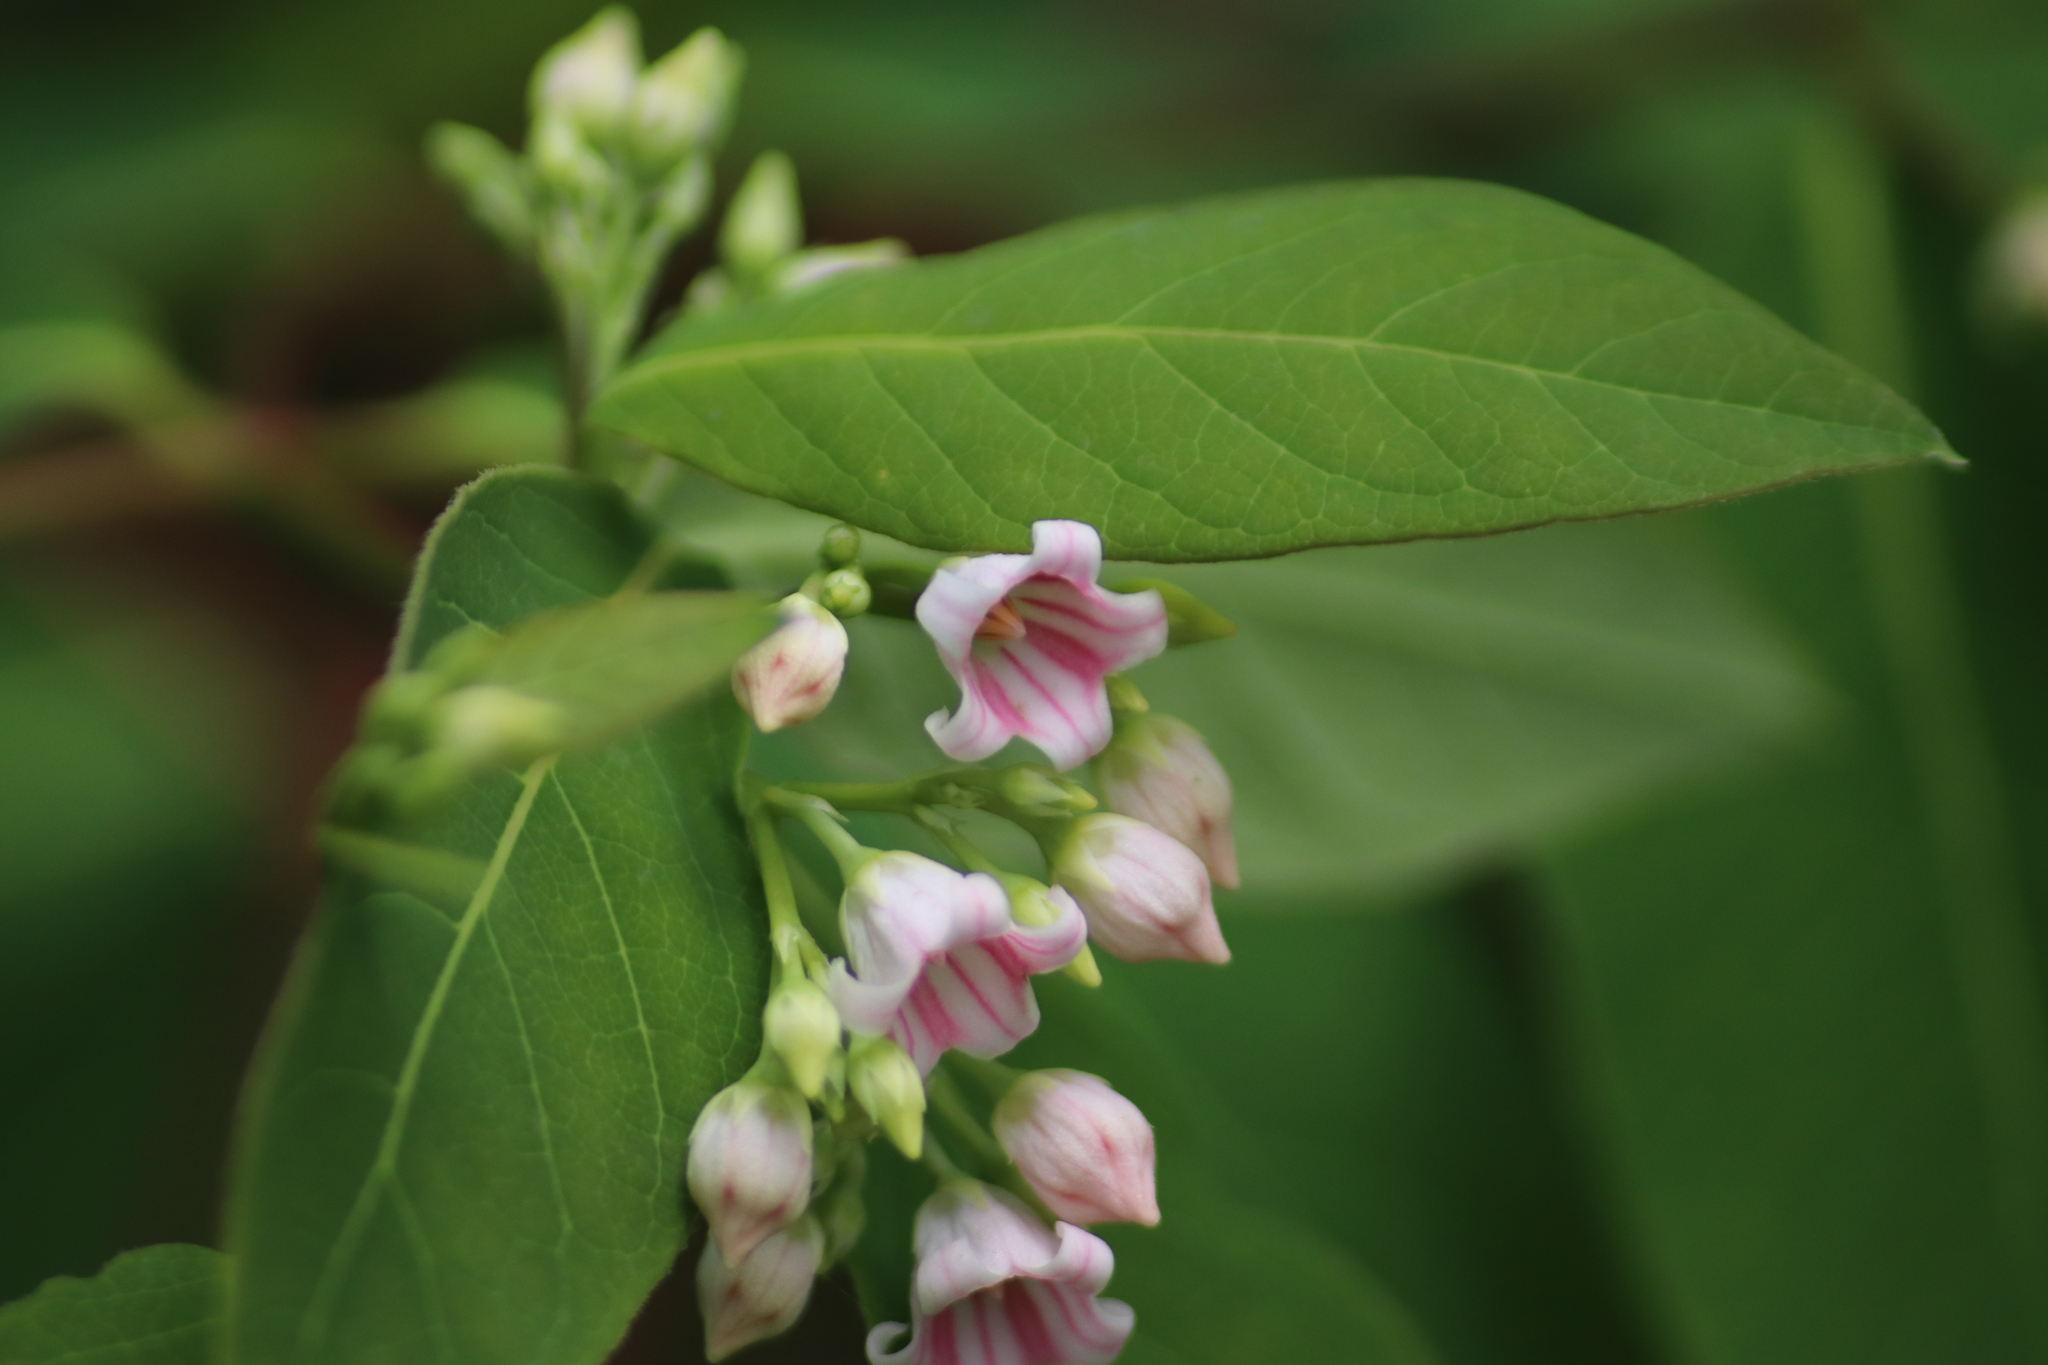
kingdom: Plantae
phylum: Tracheophyta
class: Magnoliopsida
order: Gentianales
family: Apocynaceae
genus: Apocynum
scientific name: Apocynum androsaemifolium
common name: Spreading dogbane
